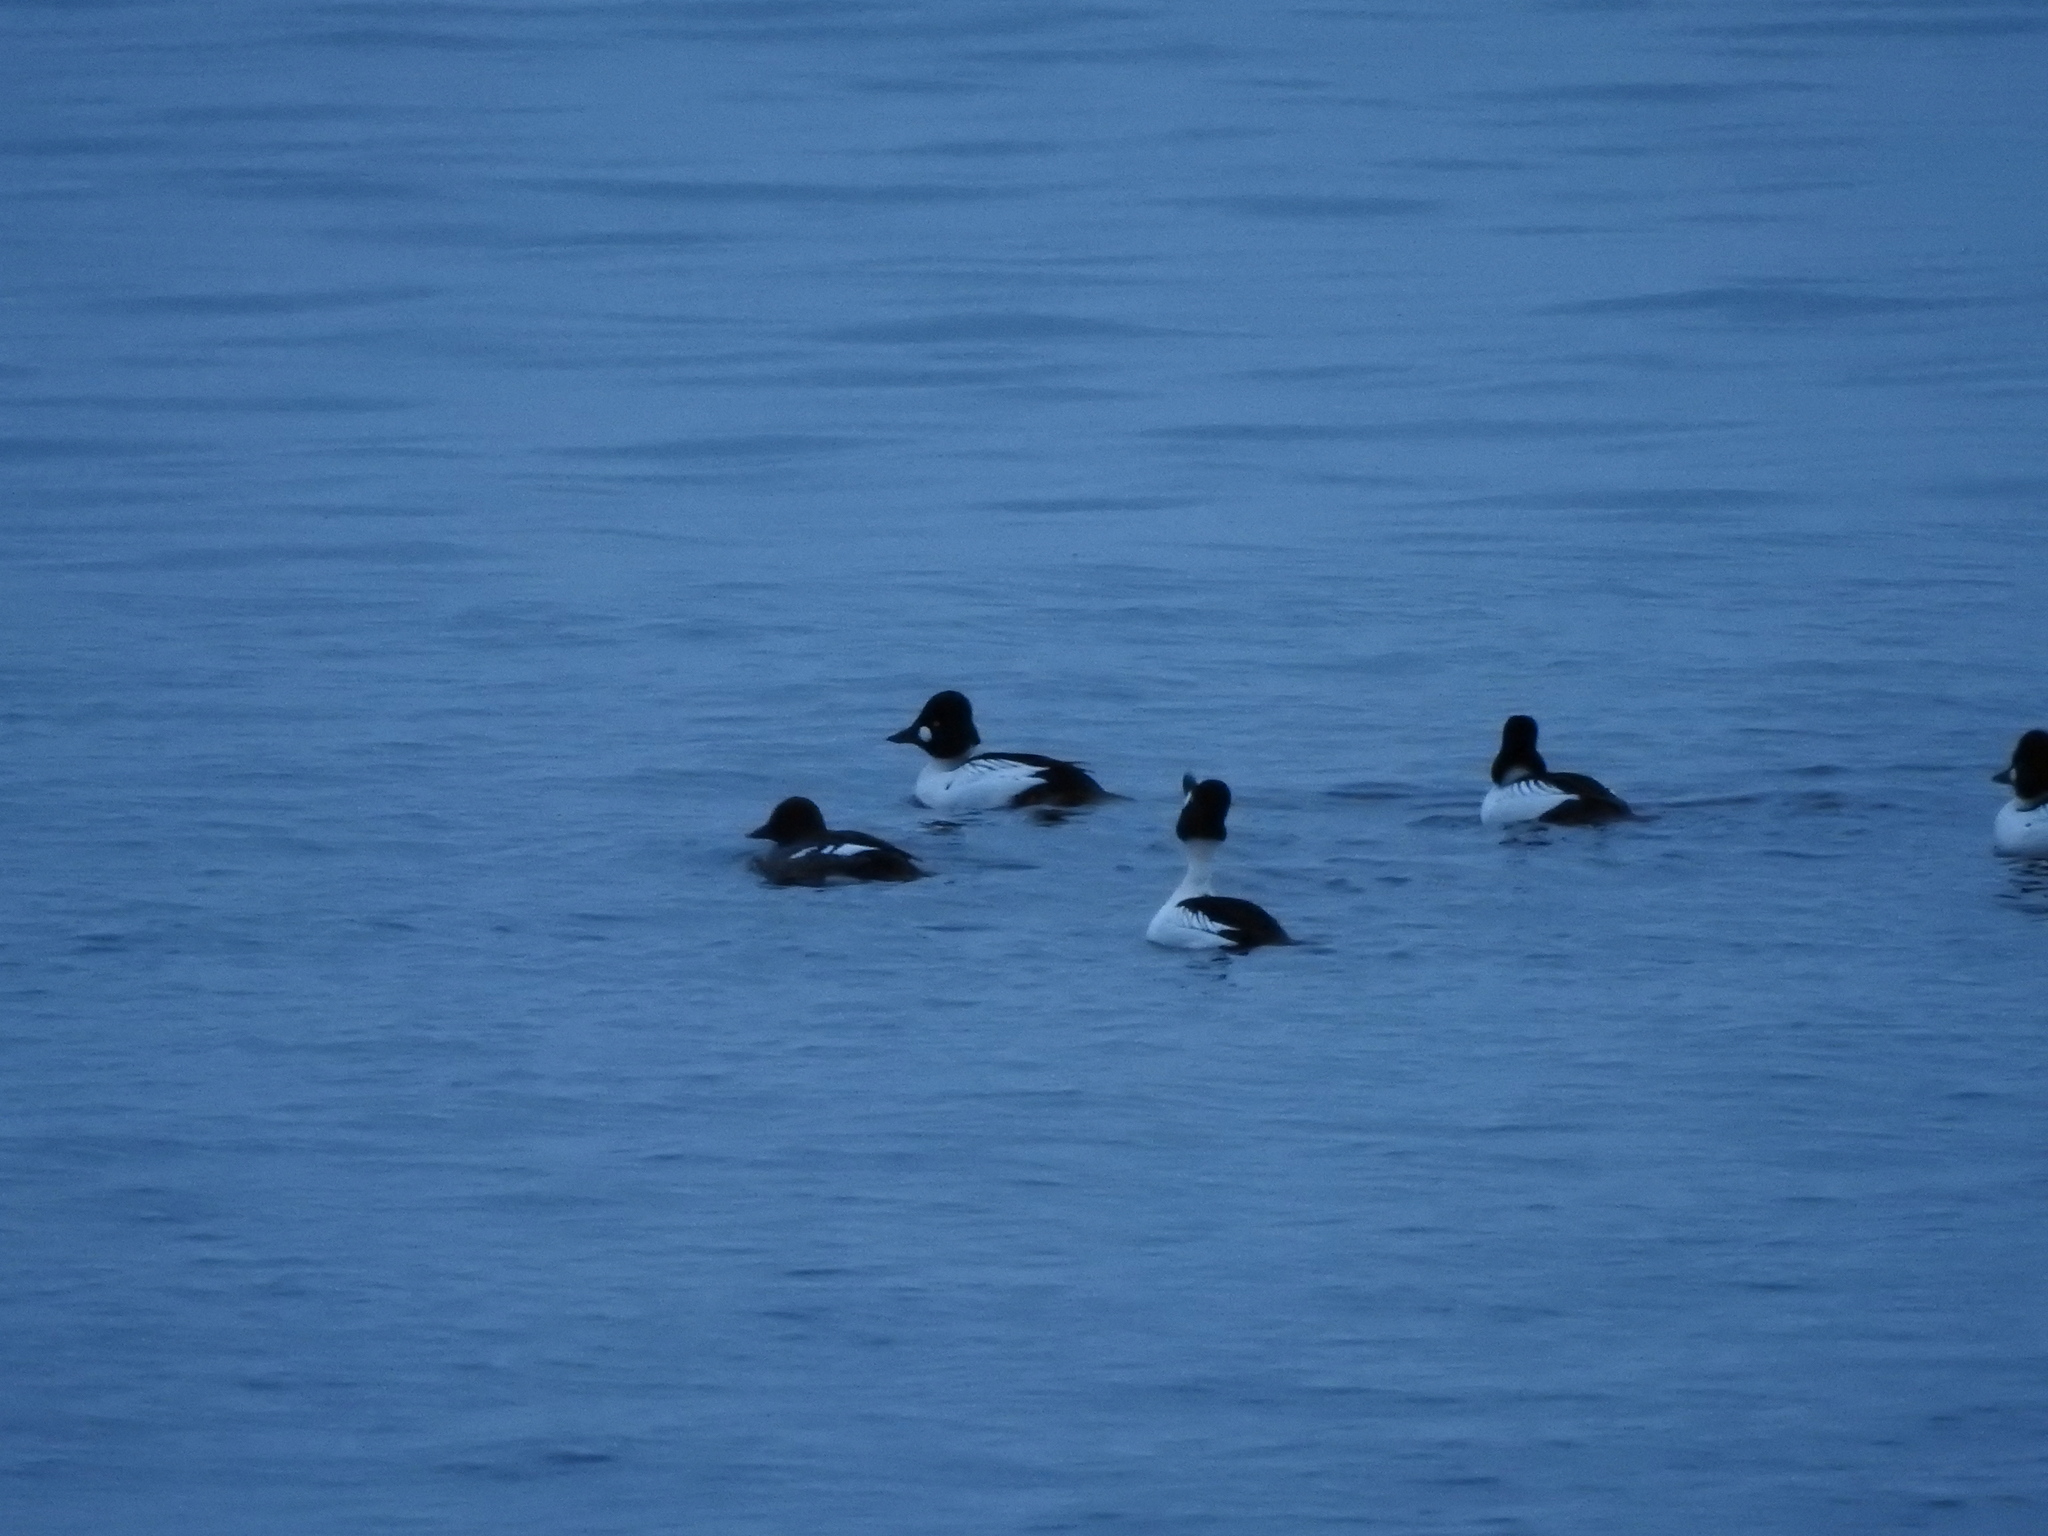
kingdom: Animalia
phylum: Chordata
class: Aves
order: Anseriformes
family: Anatidae
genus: Bucephala
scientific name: Bucephala clangula
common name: Common goldeneye
